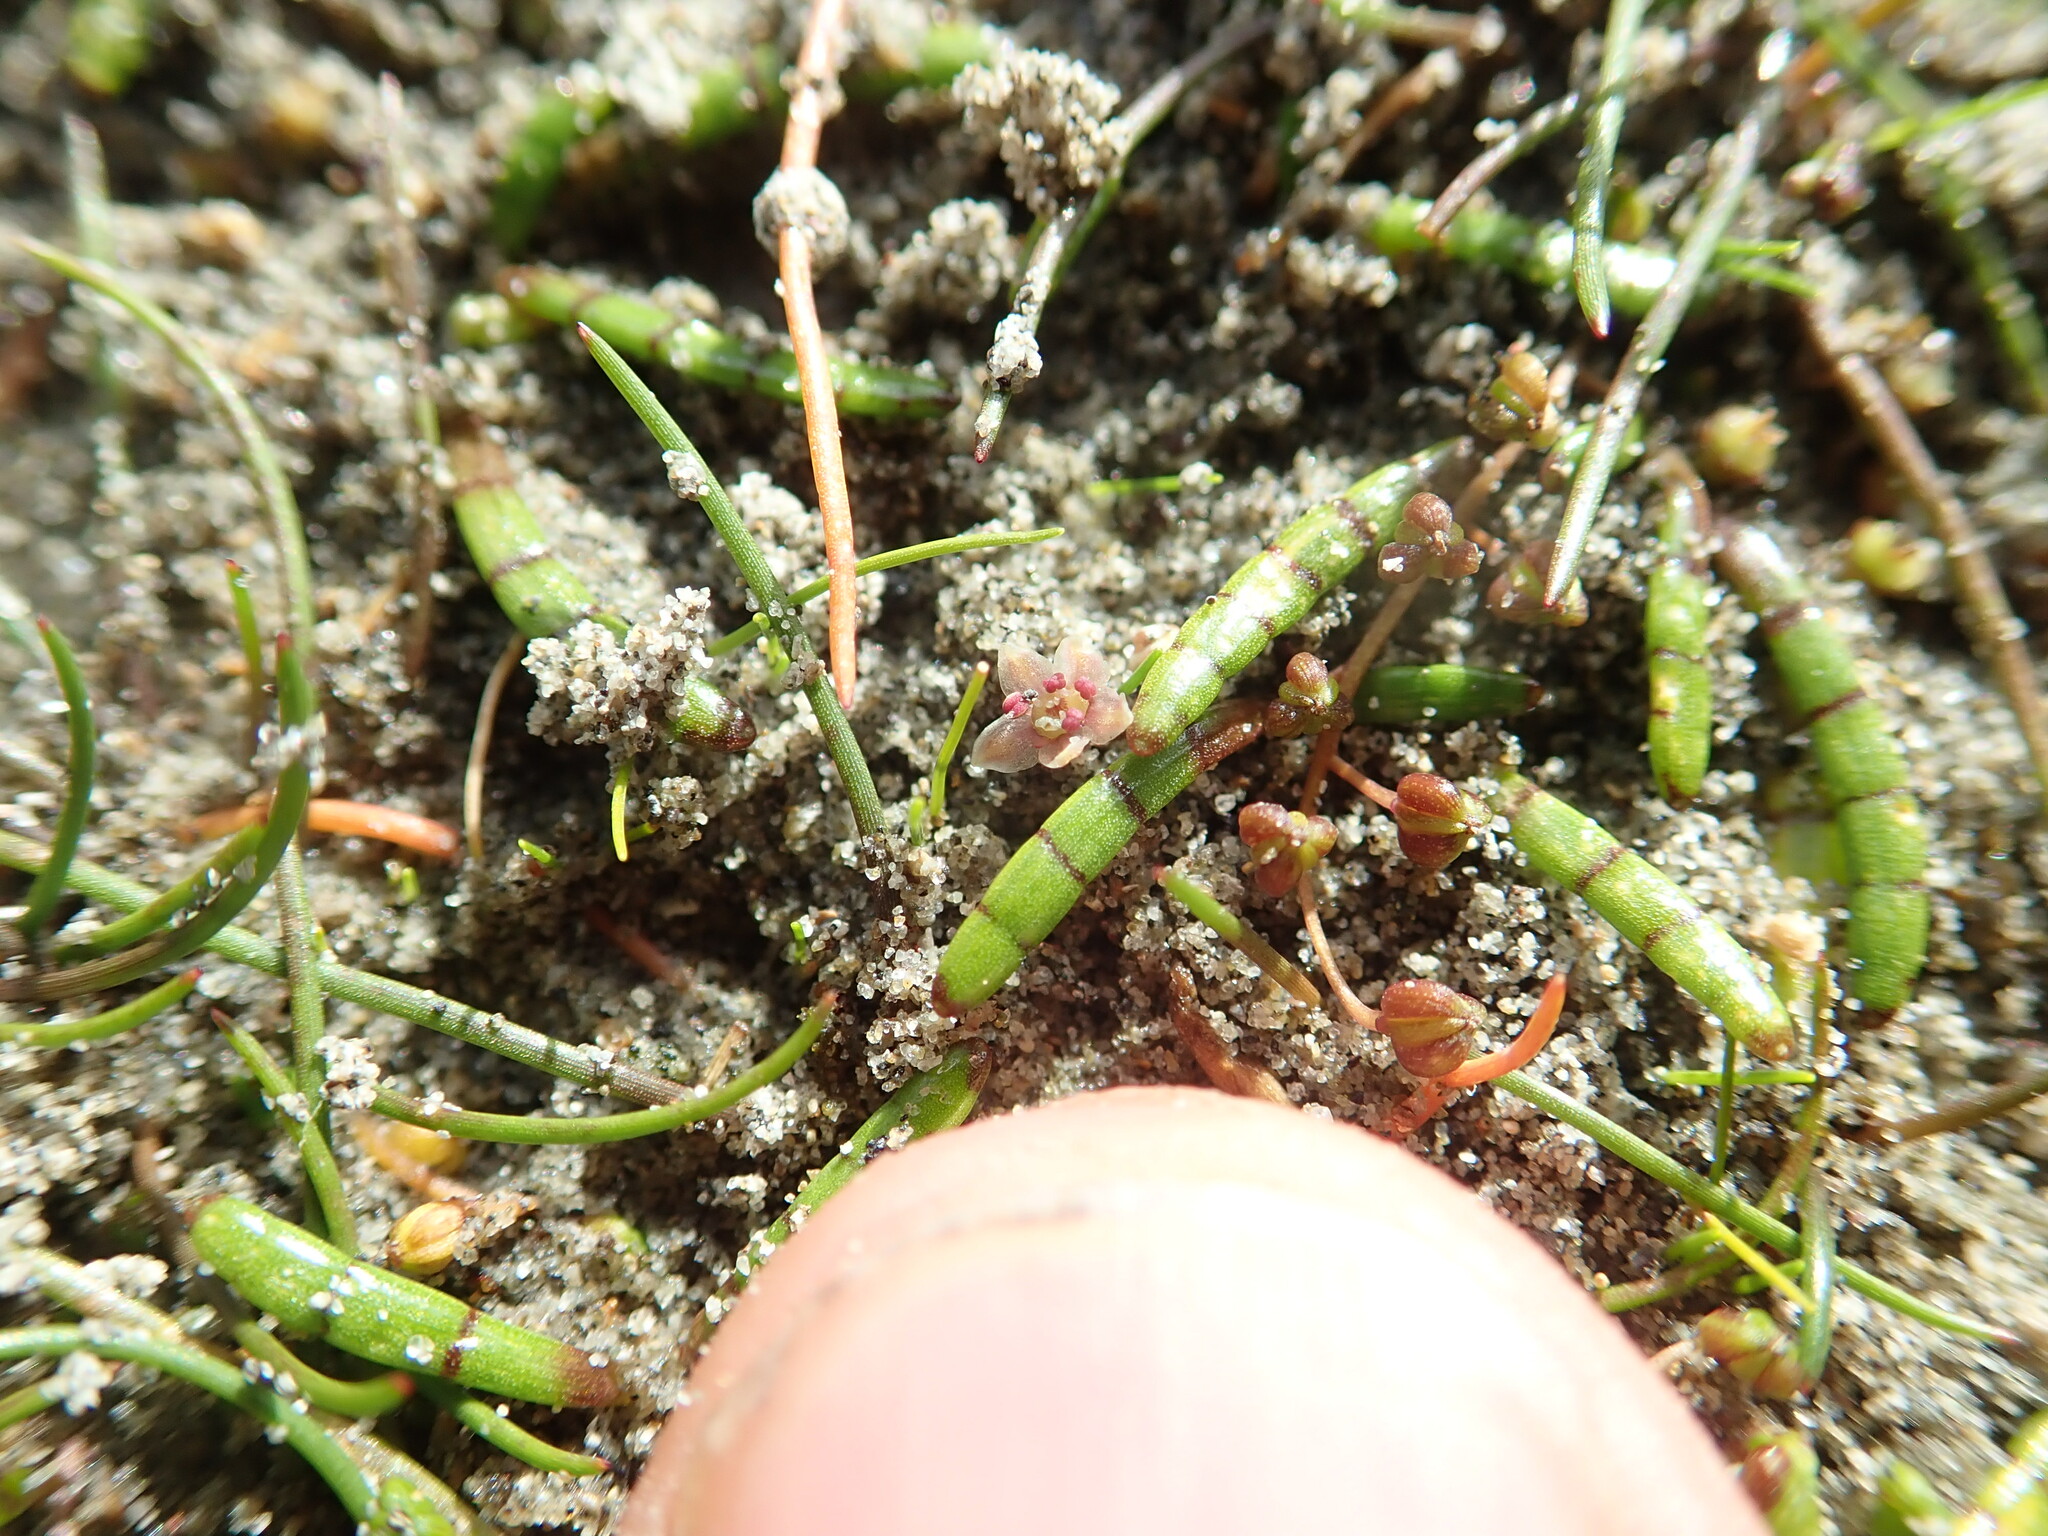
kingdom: Plantae
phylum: Tracheophyta
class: Magnoliopsida
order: Apiales
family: Apiaceae
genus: Lilaeopsis
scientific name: Lilaeopsis novae-zelandiae
